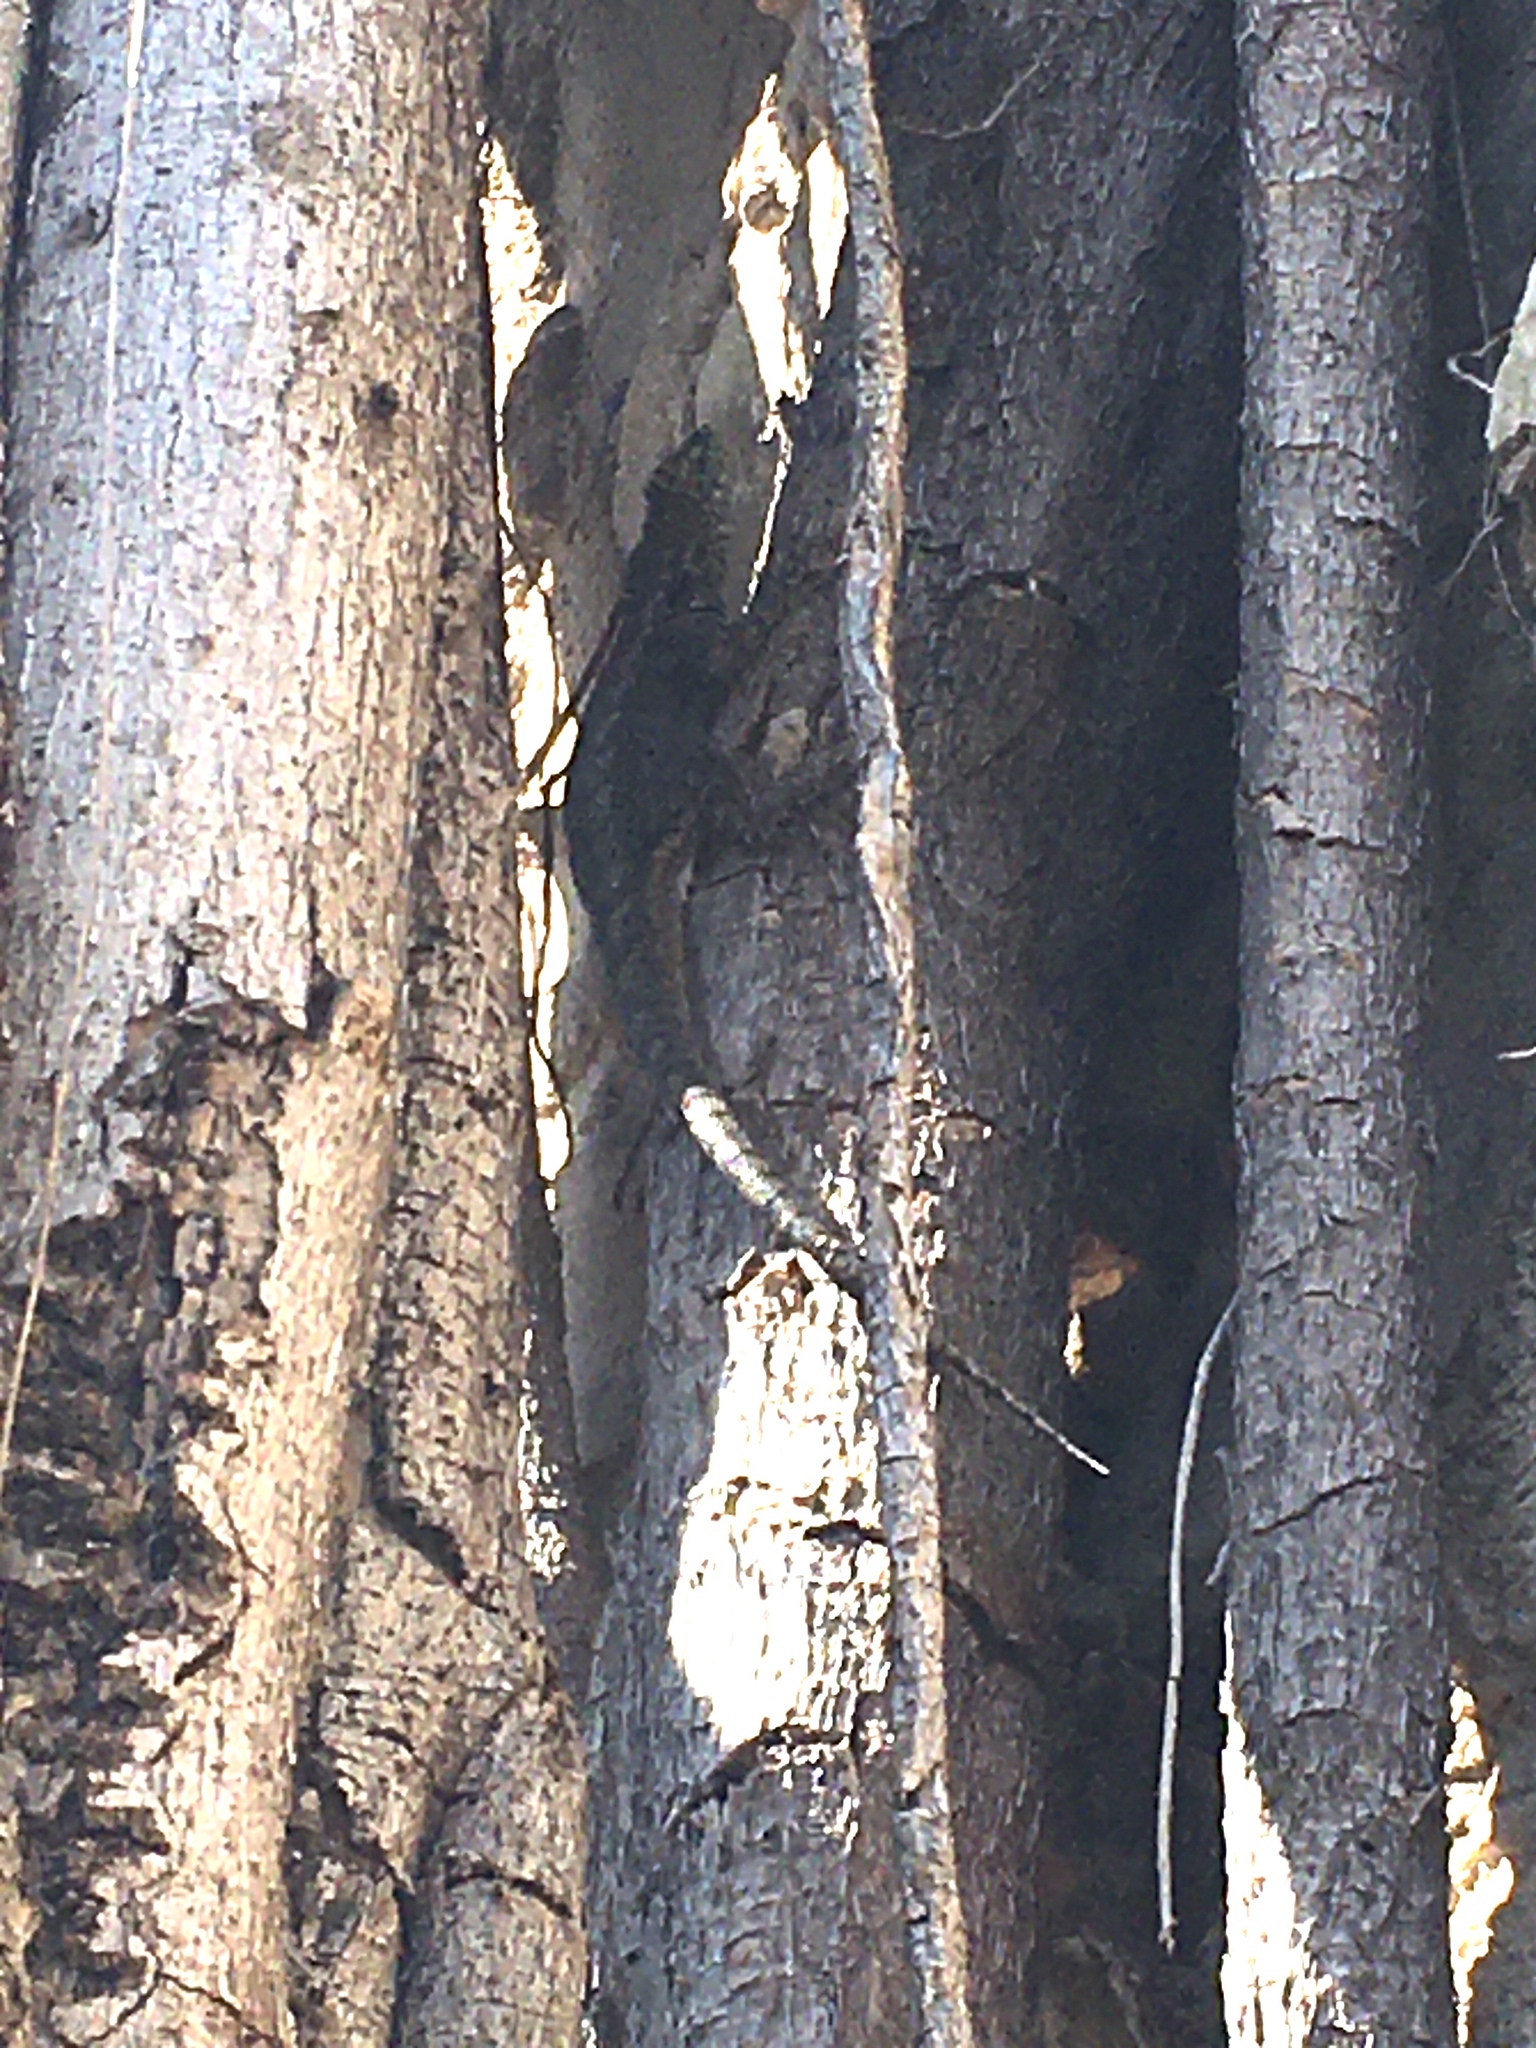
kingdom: Animalia
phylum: Chordata
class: Squamata
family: Tropiduridae
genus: Tropidurus
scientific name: Tropidurus lagunablanca
